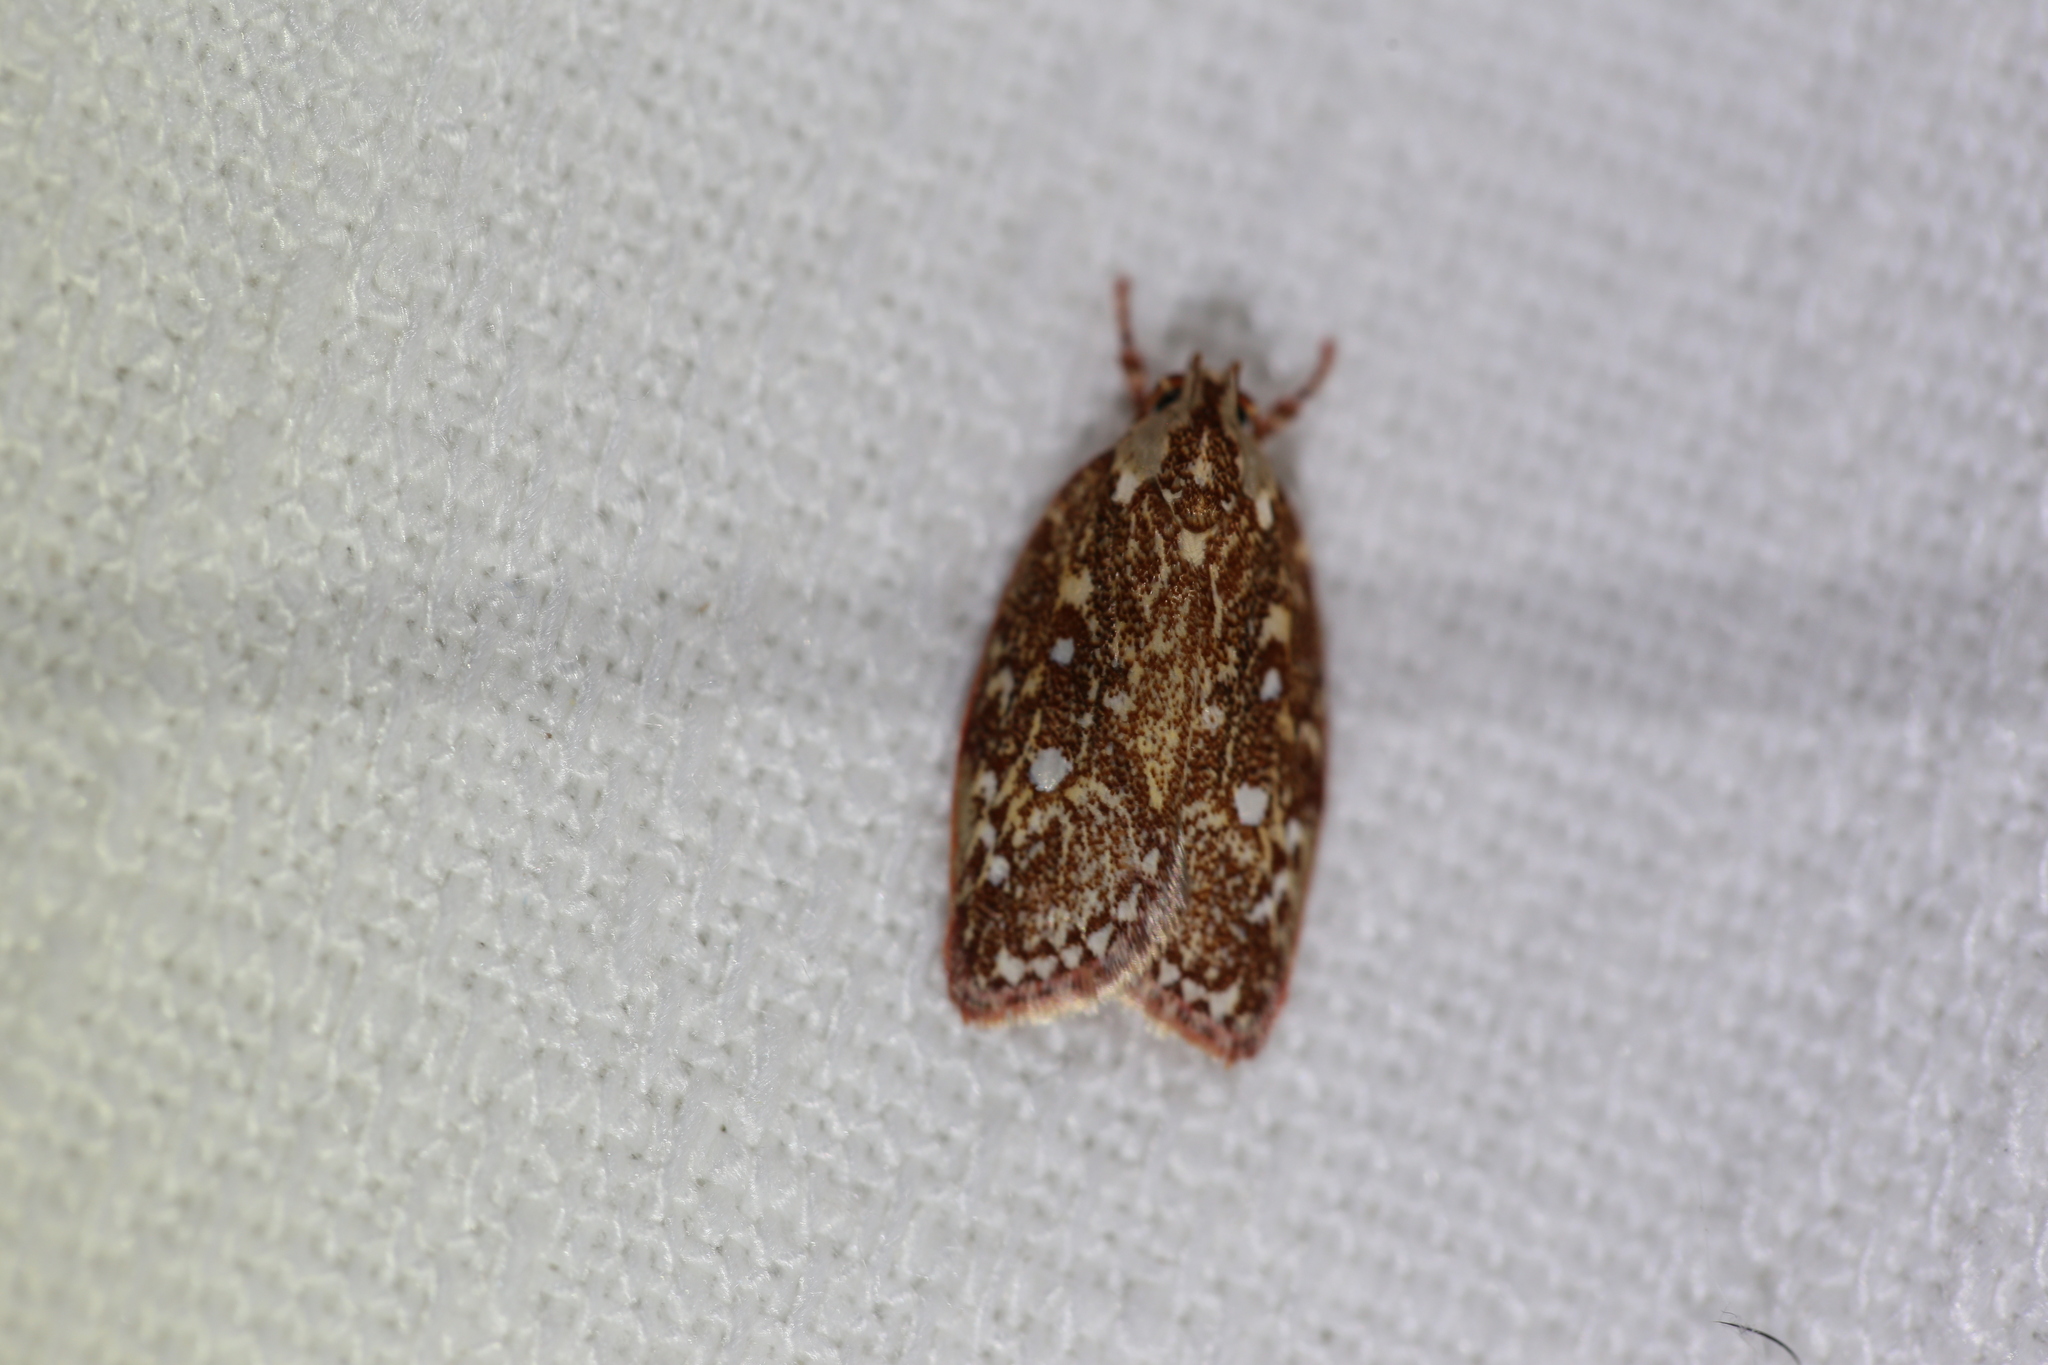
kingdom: Animalia
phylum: Arthropoda
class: Insecta
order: Lepidoptera
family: Oecophoridae
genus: Euchaetis
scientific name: Euchaetis metallota
